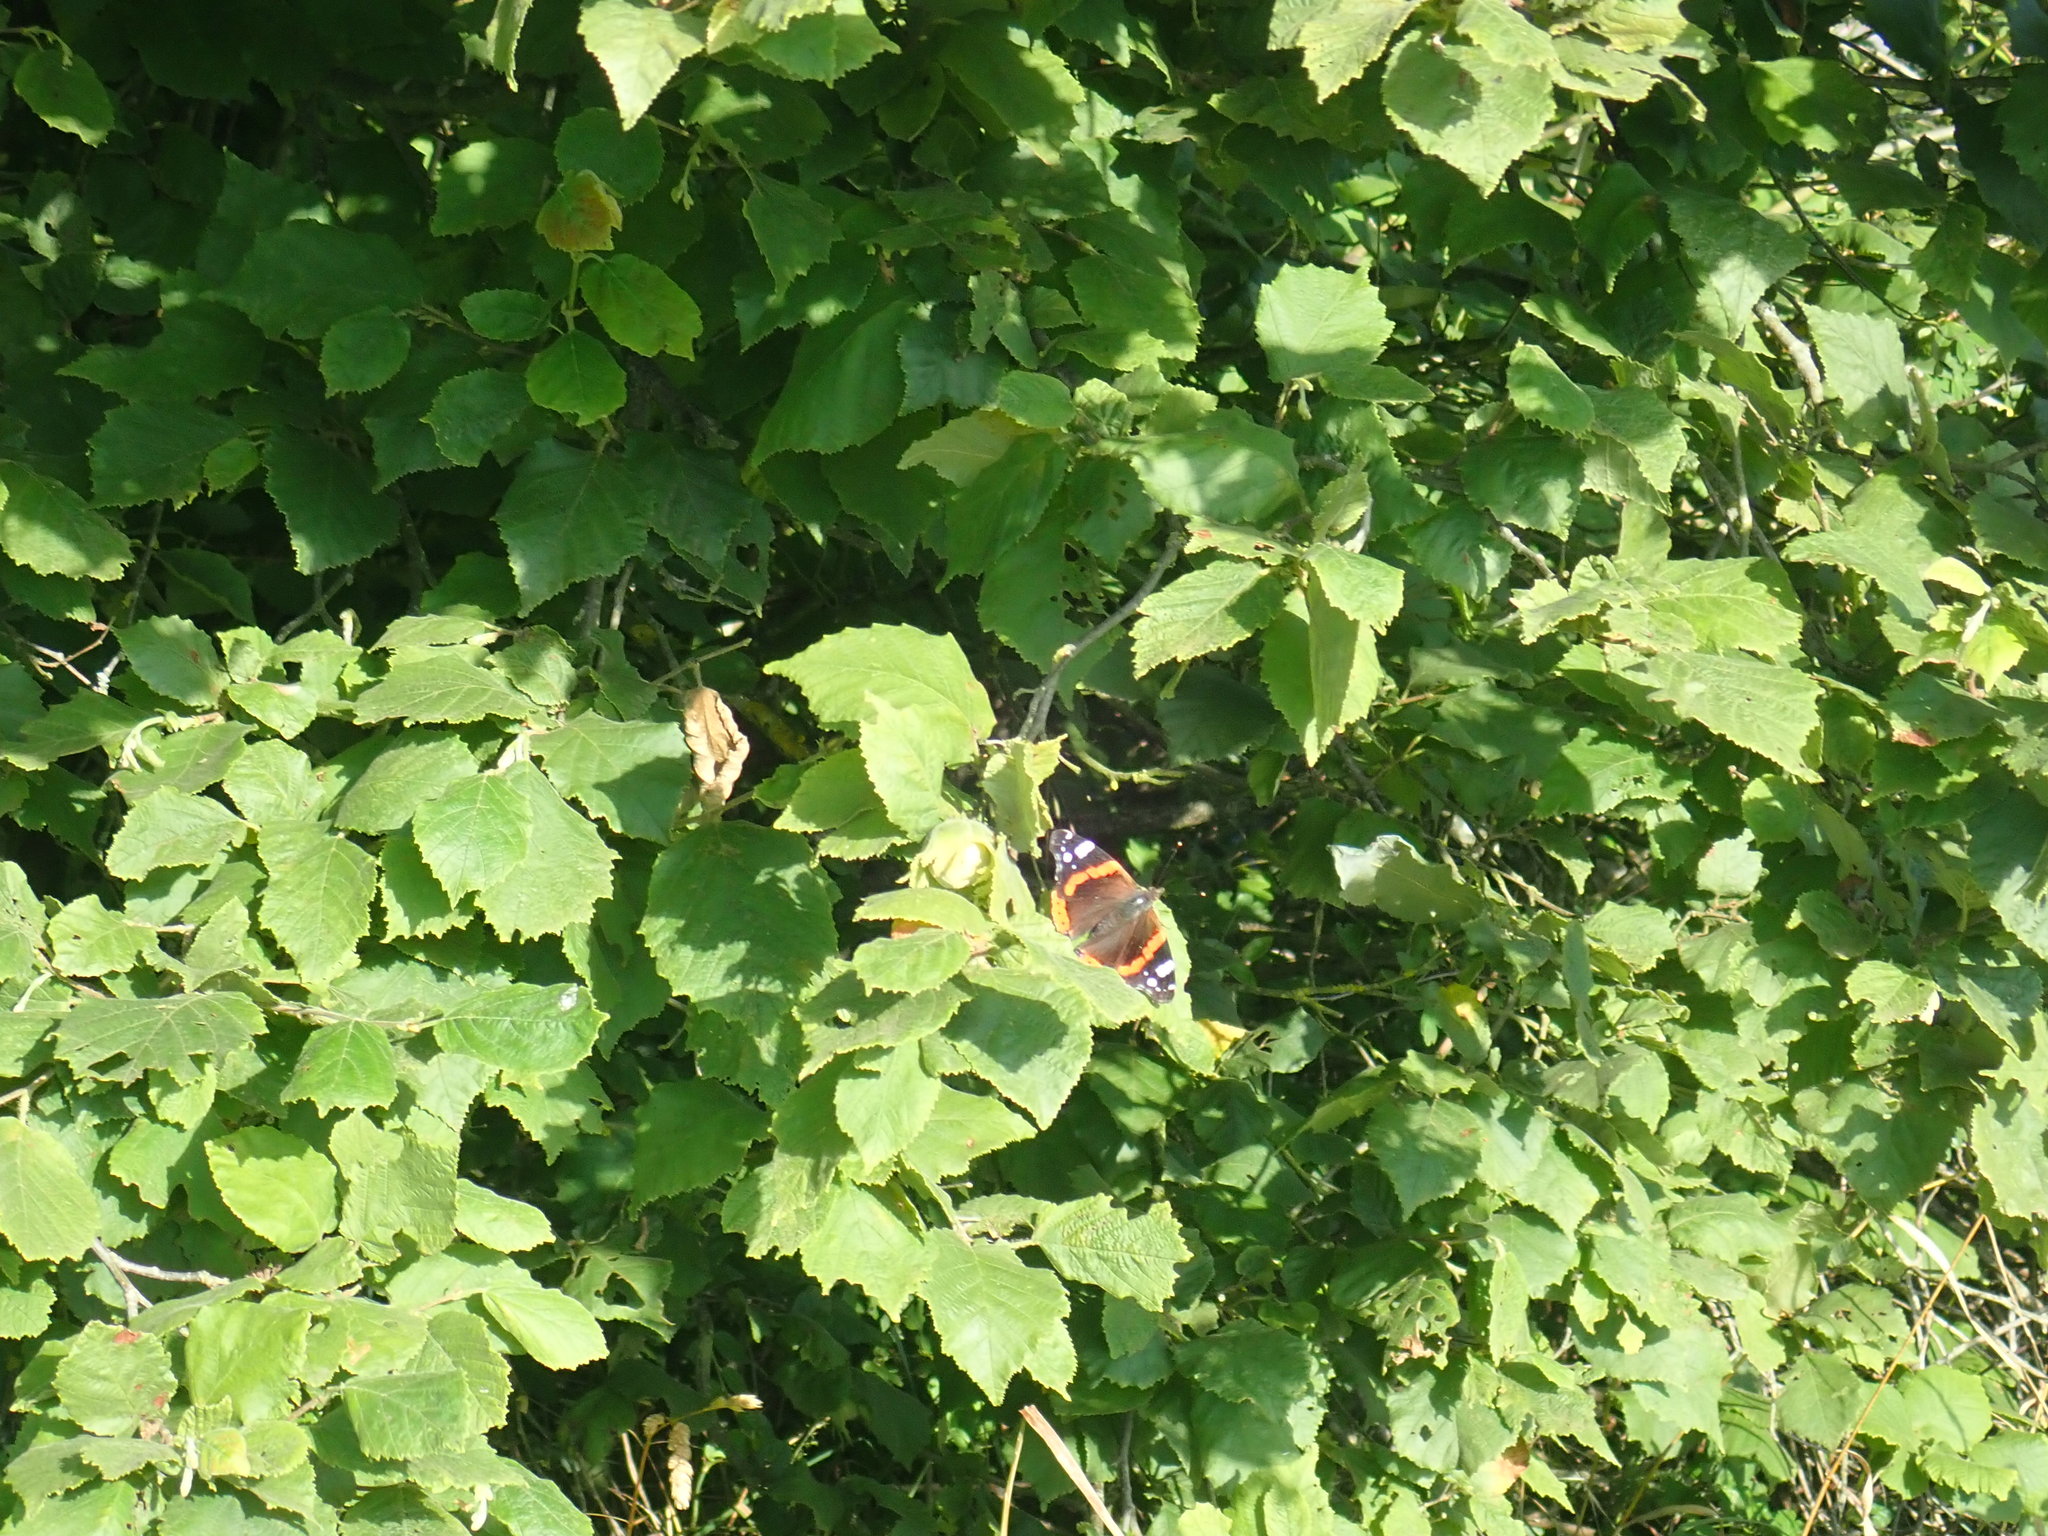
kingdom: Animalia
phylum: Arthropoda
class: Insecta
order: Lepidoptera
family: Nymphalidae
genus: Vanessa
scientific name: Vanessa atalanta
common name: Red admiral
